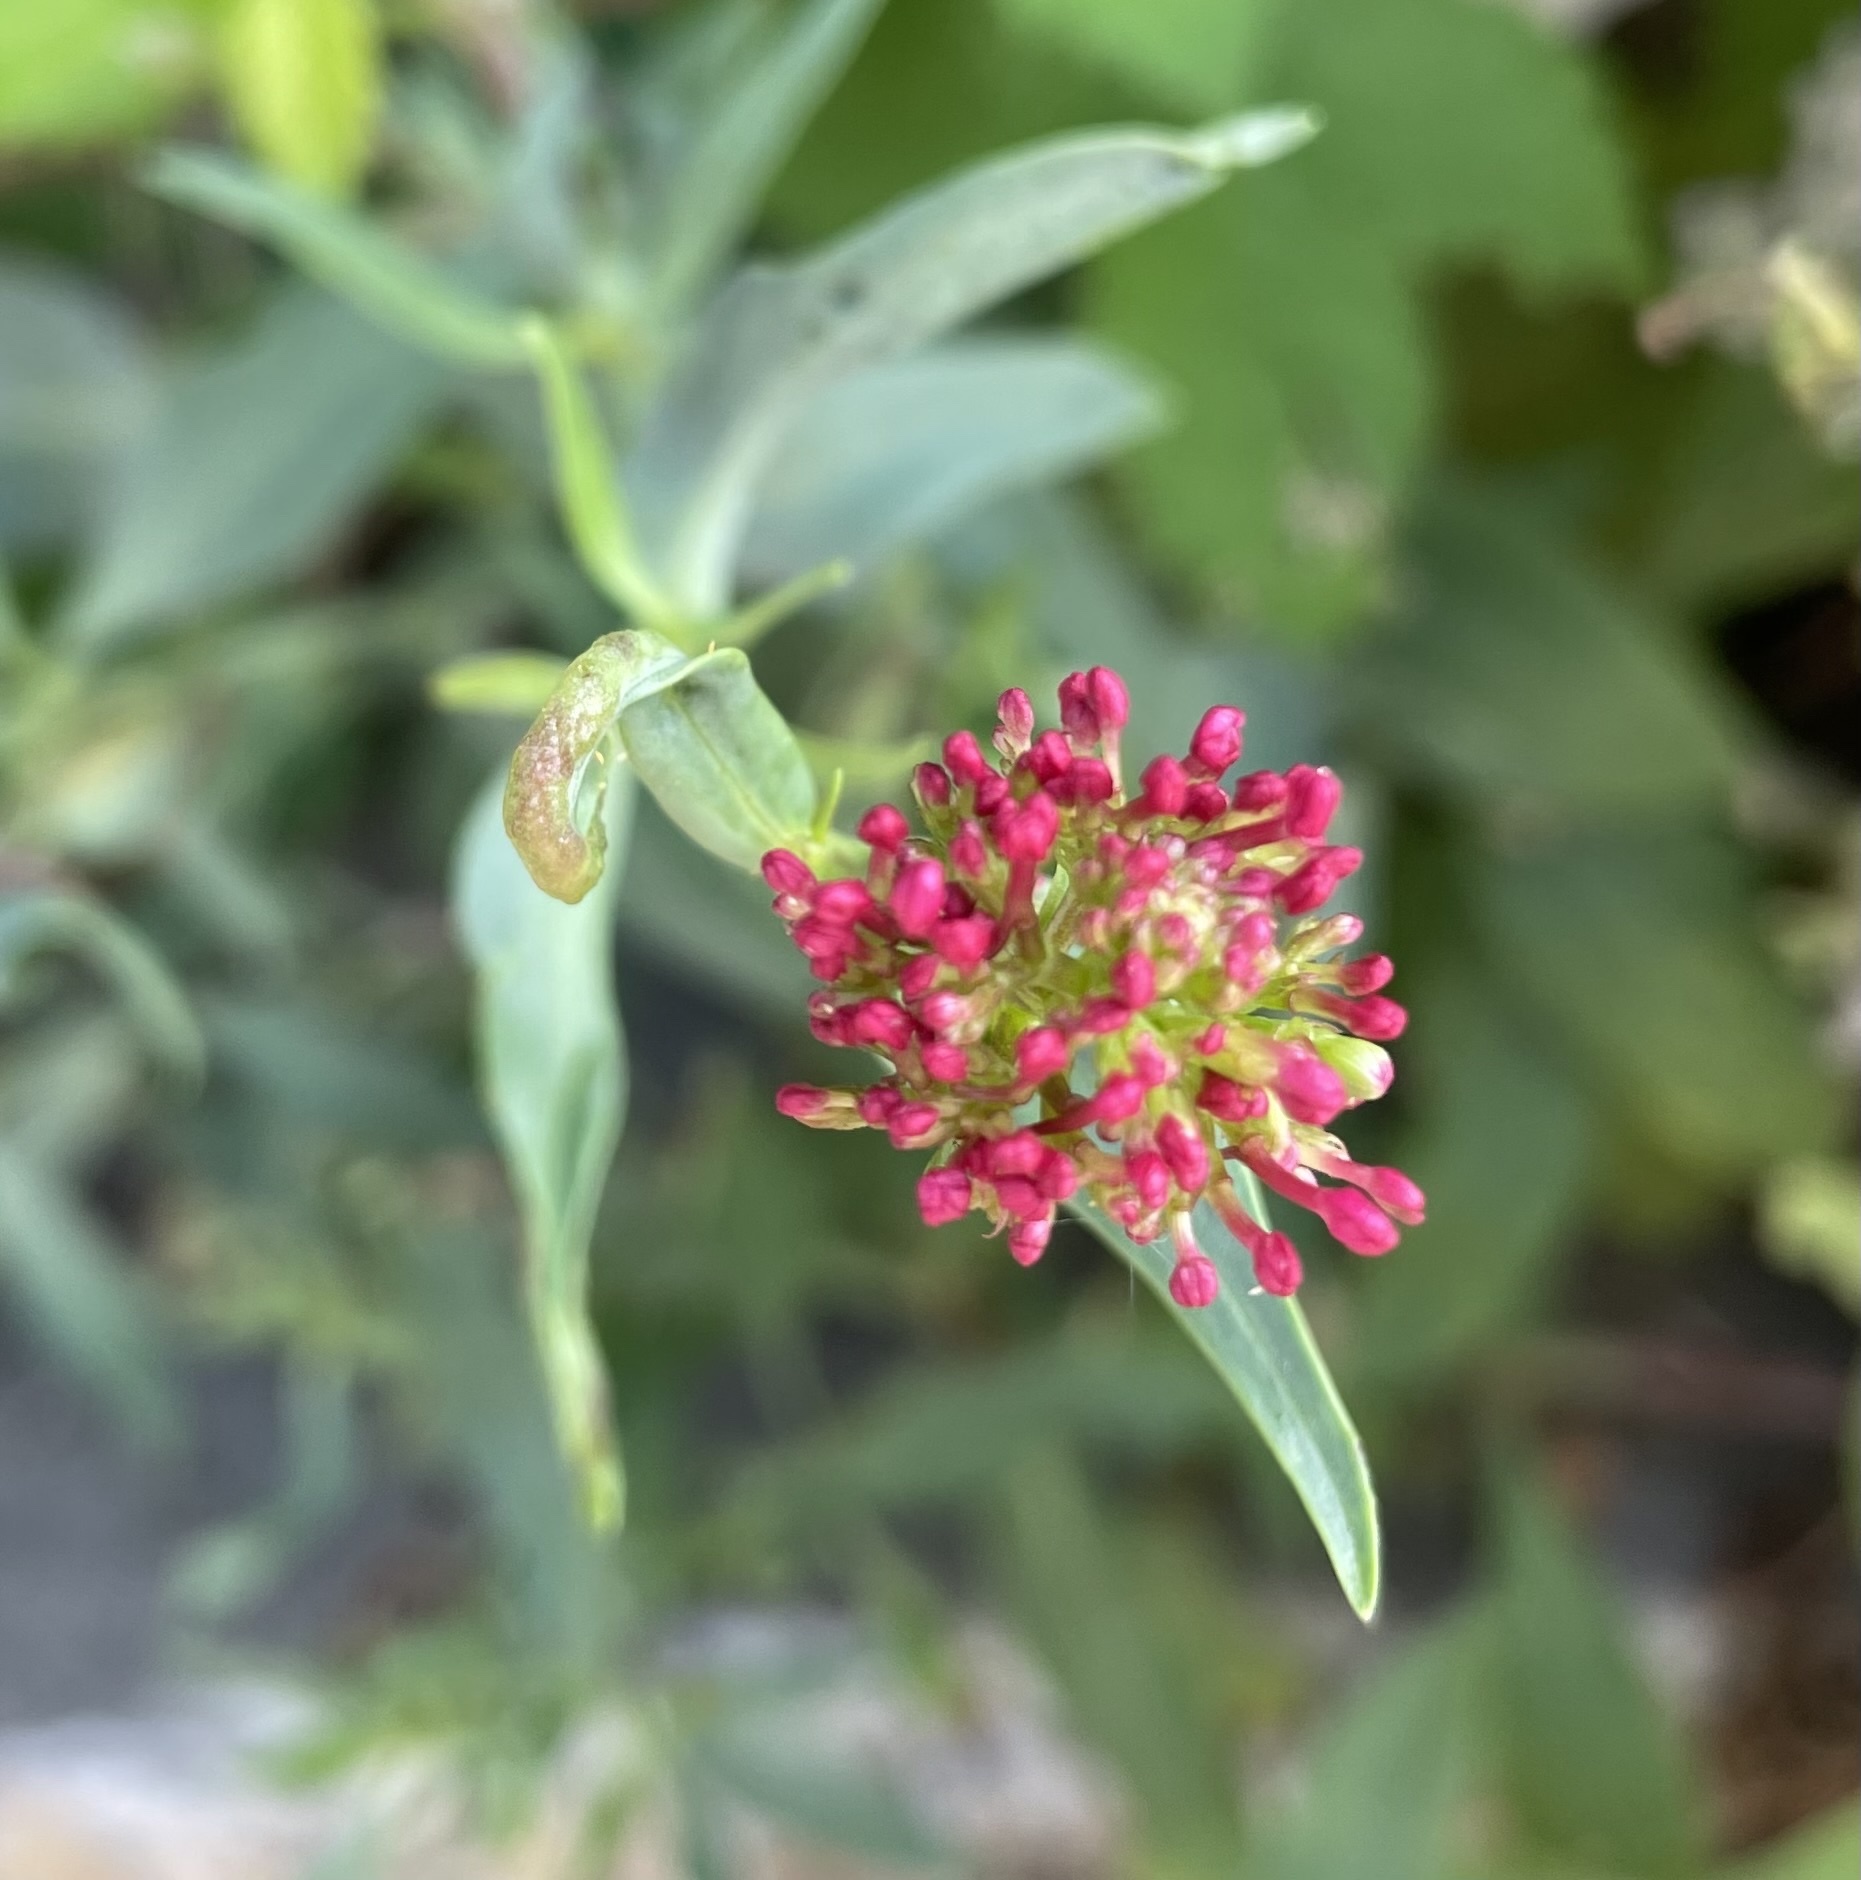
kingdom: Plantae
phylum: Tracheophyta
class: Magnoliopsida
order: Dipsacales
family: Caprifoliaceae
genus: Centranthus
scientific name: Centranthus ruber
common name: Red valerian
